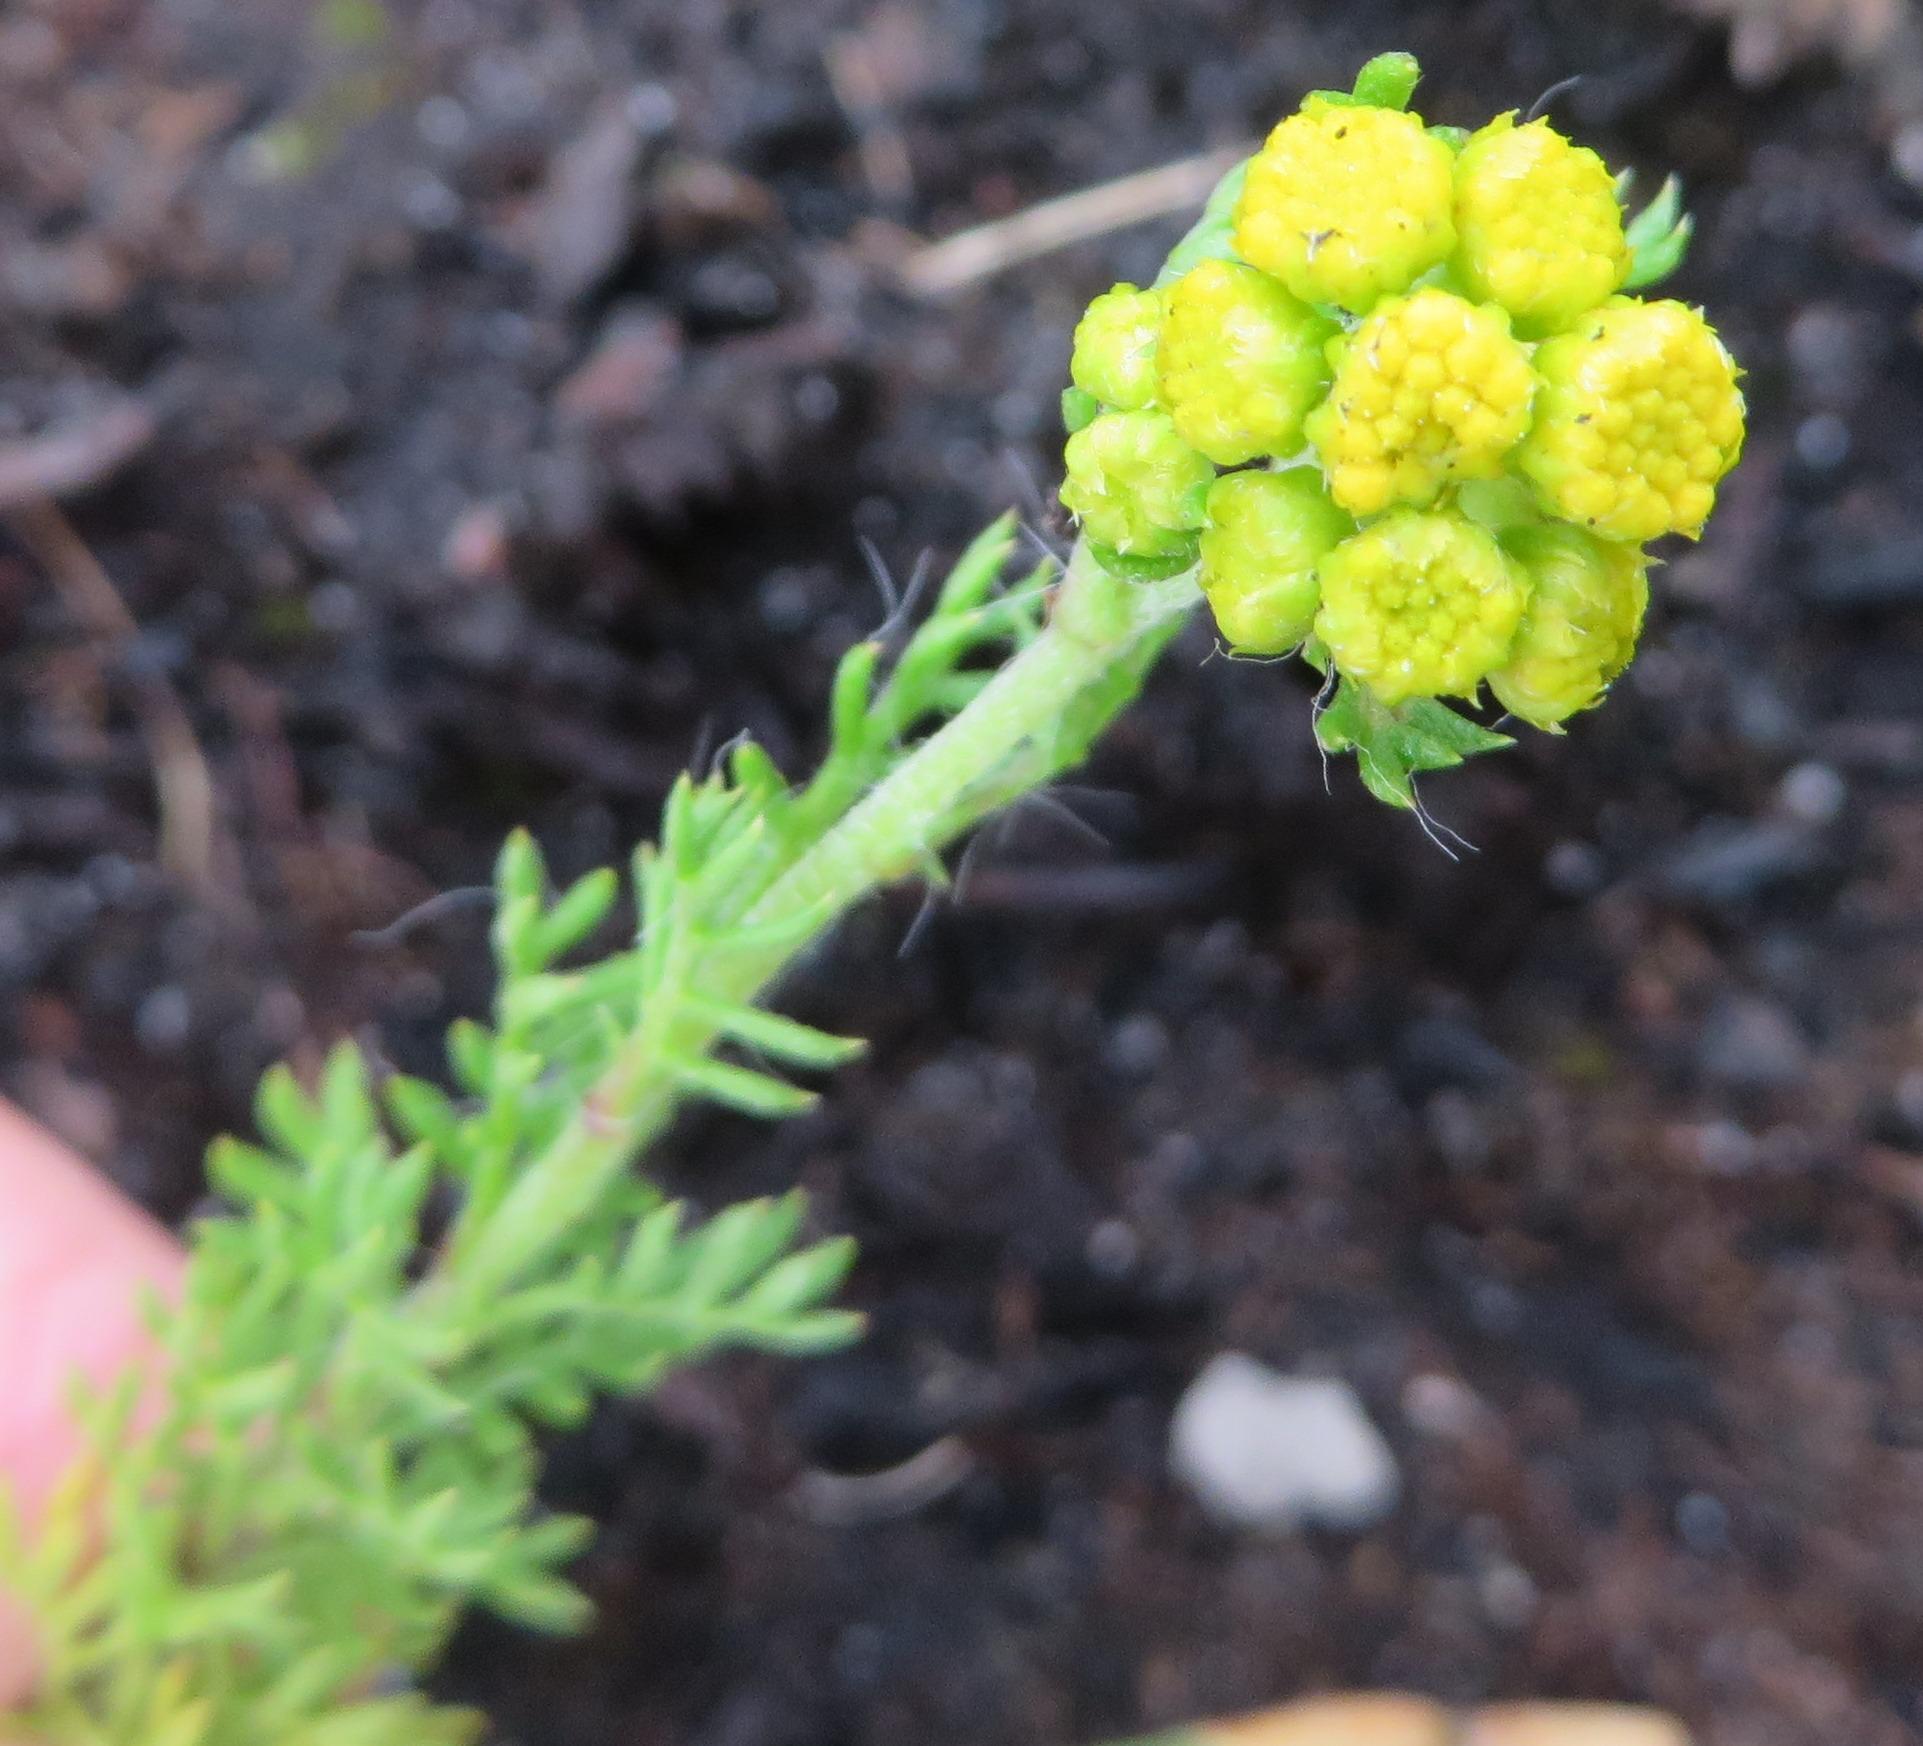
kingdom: Plantae
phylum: Tracheophyta
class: Magnoliopsida
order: Asterales
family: Asteraceae
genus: Hippia
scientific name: Hippia pilosa
